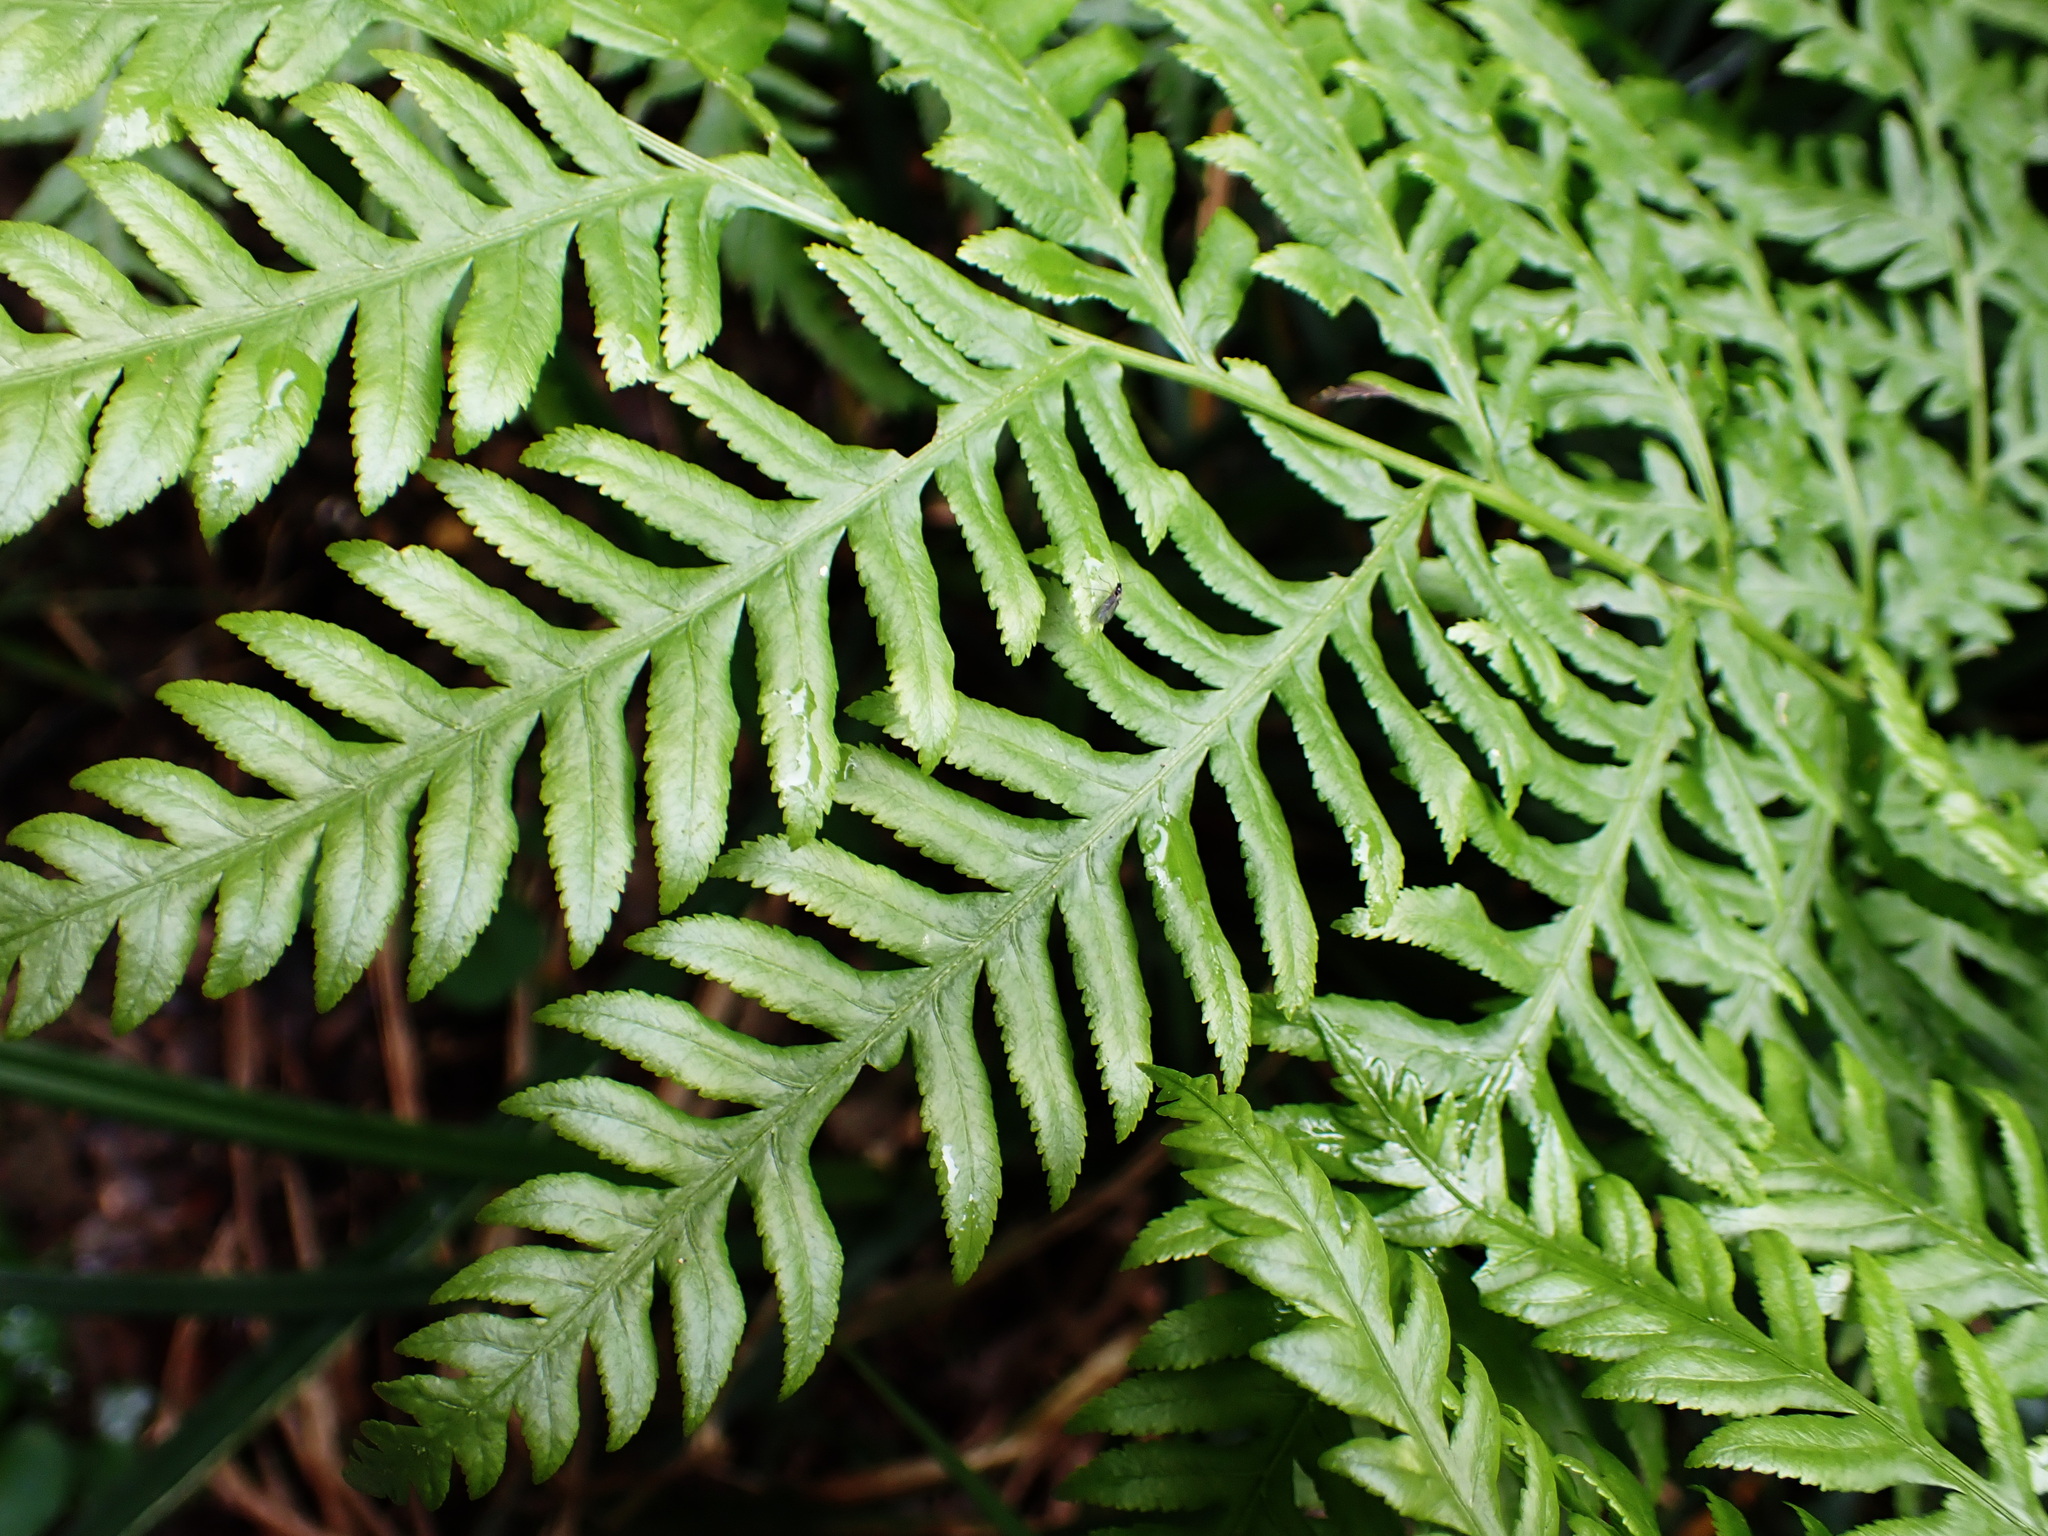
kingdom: Plantae
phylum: Tracheophyta
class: Polypodiopsida
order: Polypodiales
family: Pteridaceae
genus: Pteris
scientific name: Pteris dentata
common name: Toothed brake
